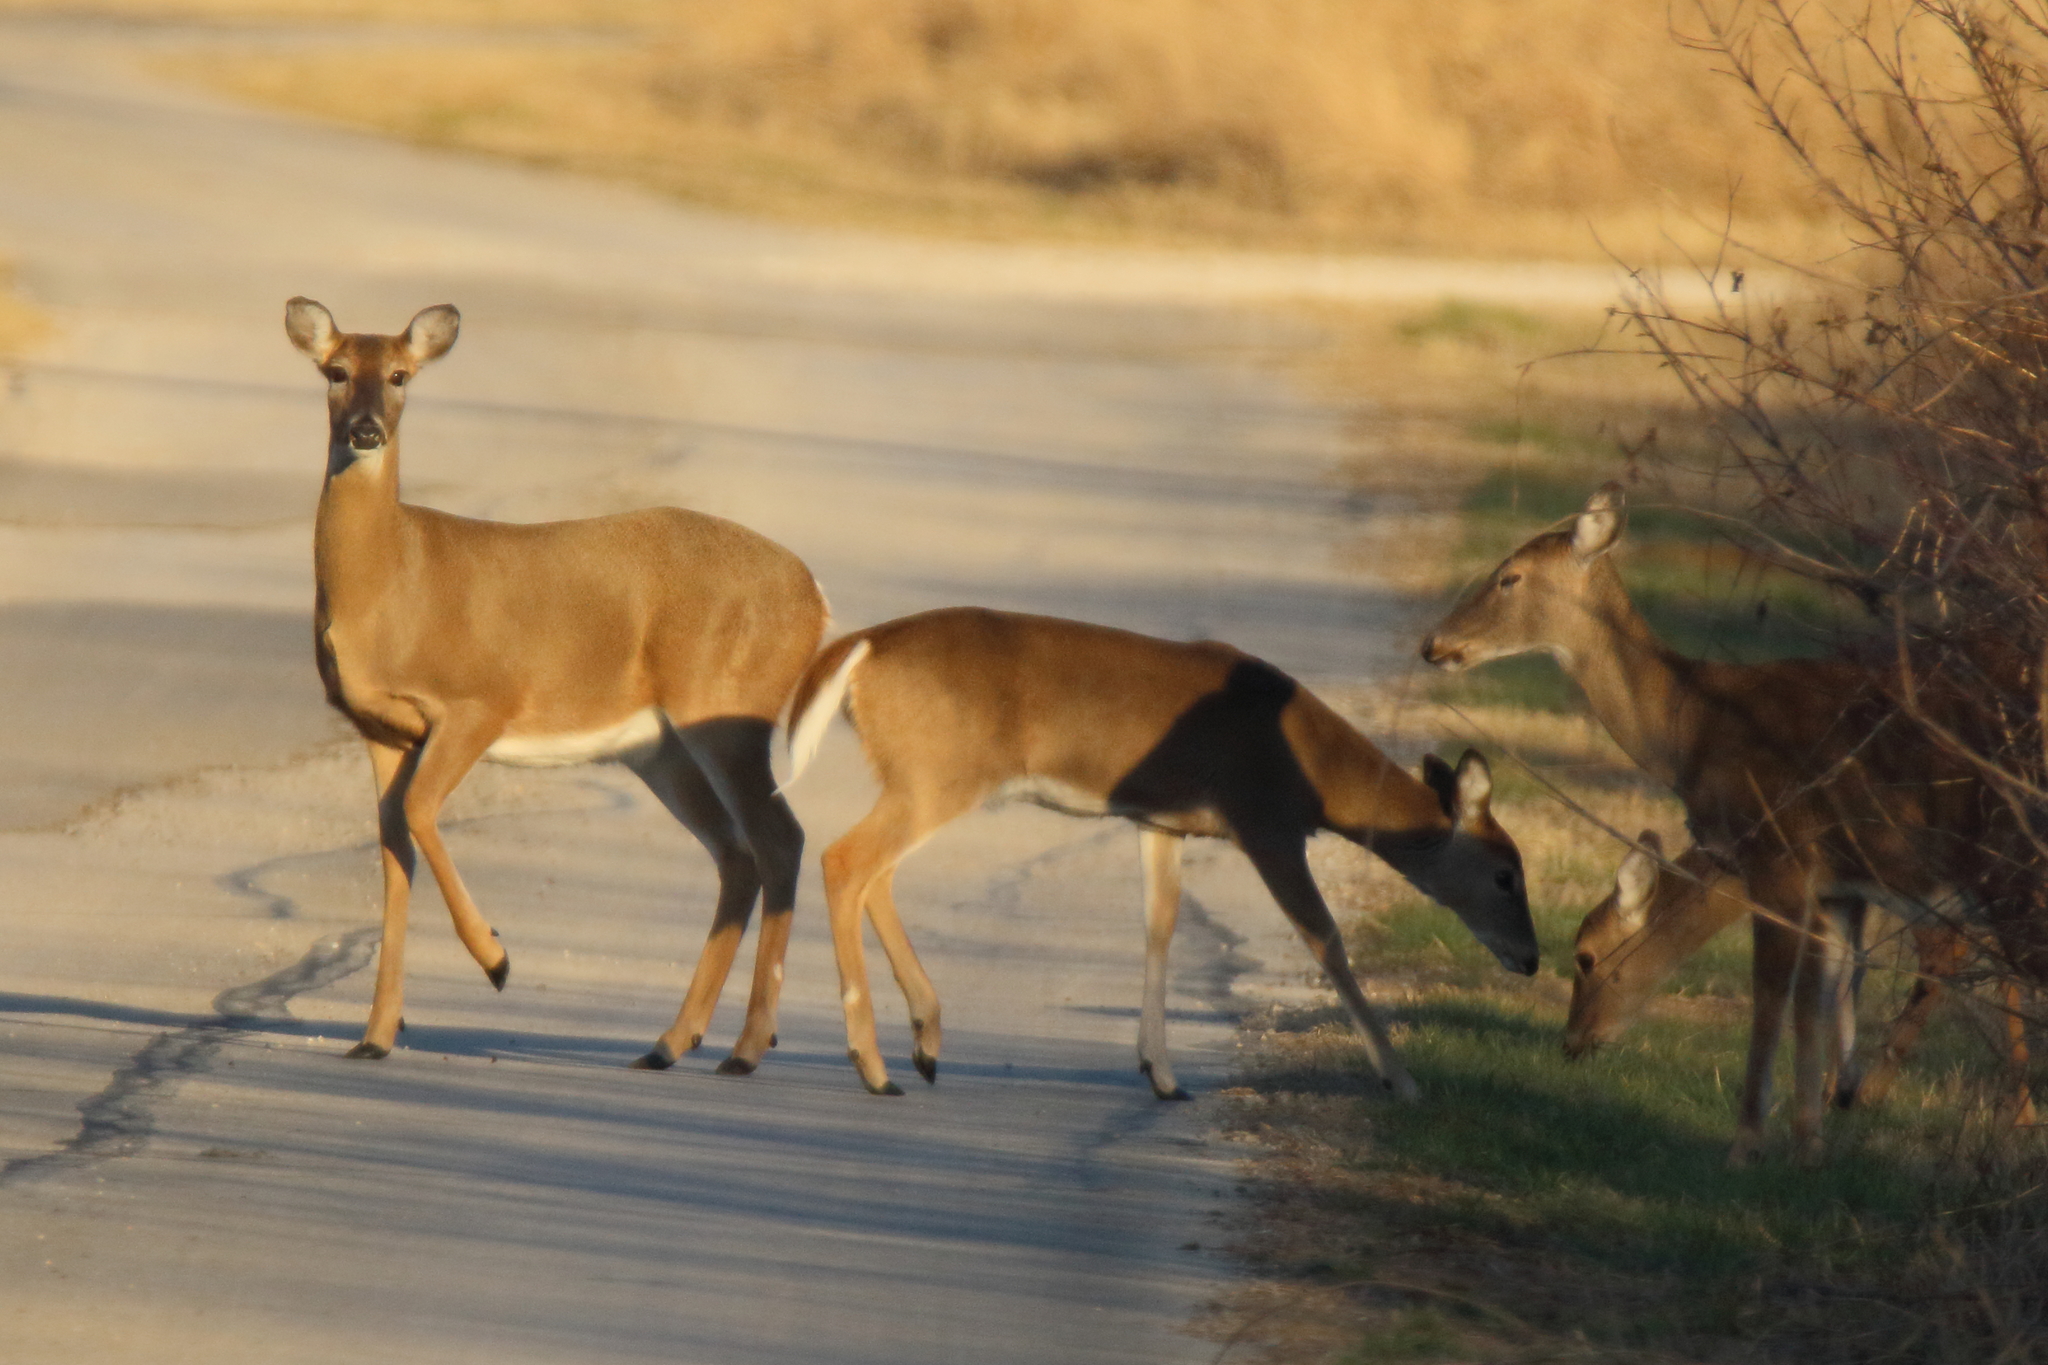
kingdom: Animalia
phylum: Chordata
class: Mammalia
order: Artiodactyla
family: Cervidae
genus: Odocoileus
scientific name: Odocoileus virginianus
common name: White-tailed deer
